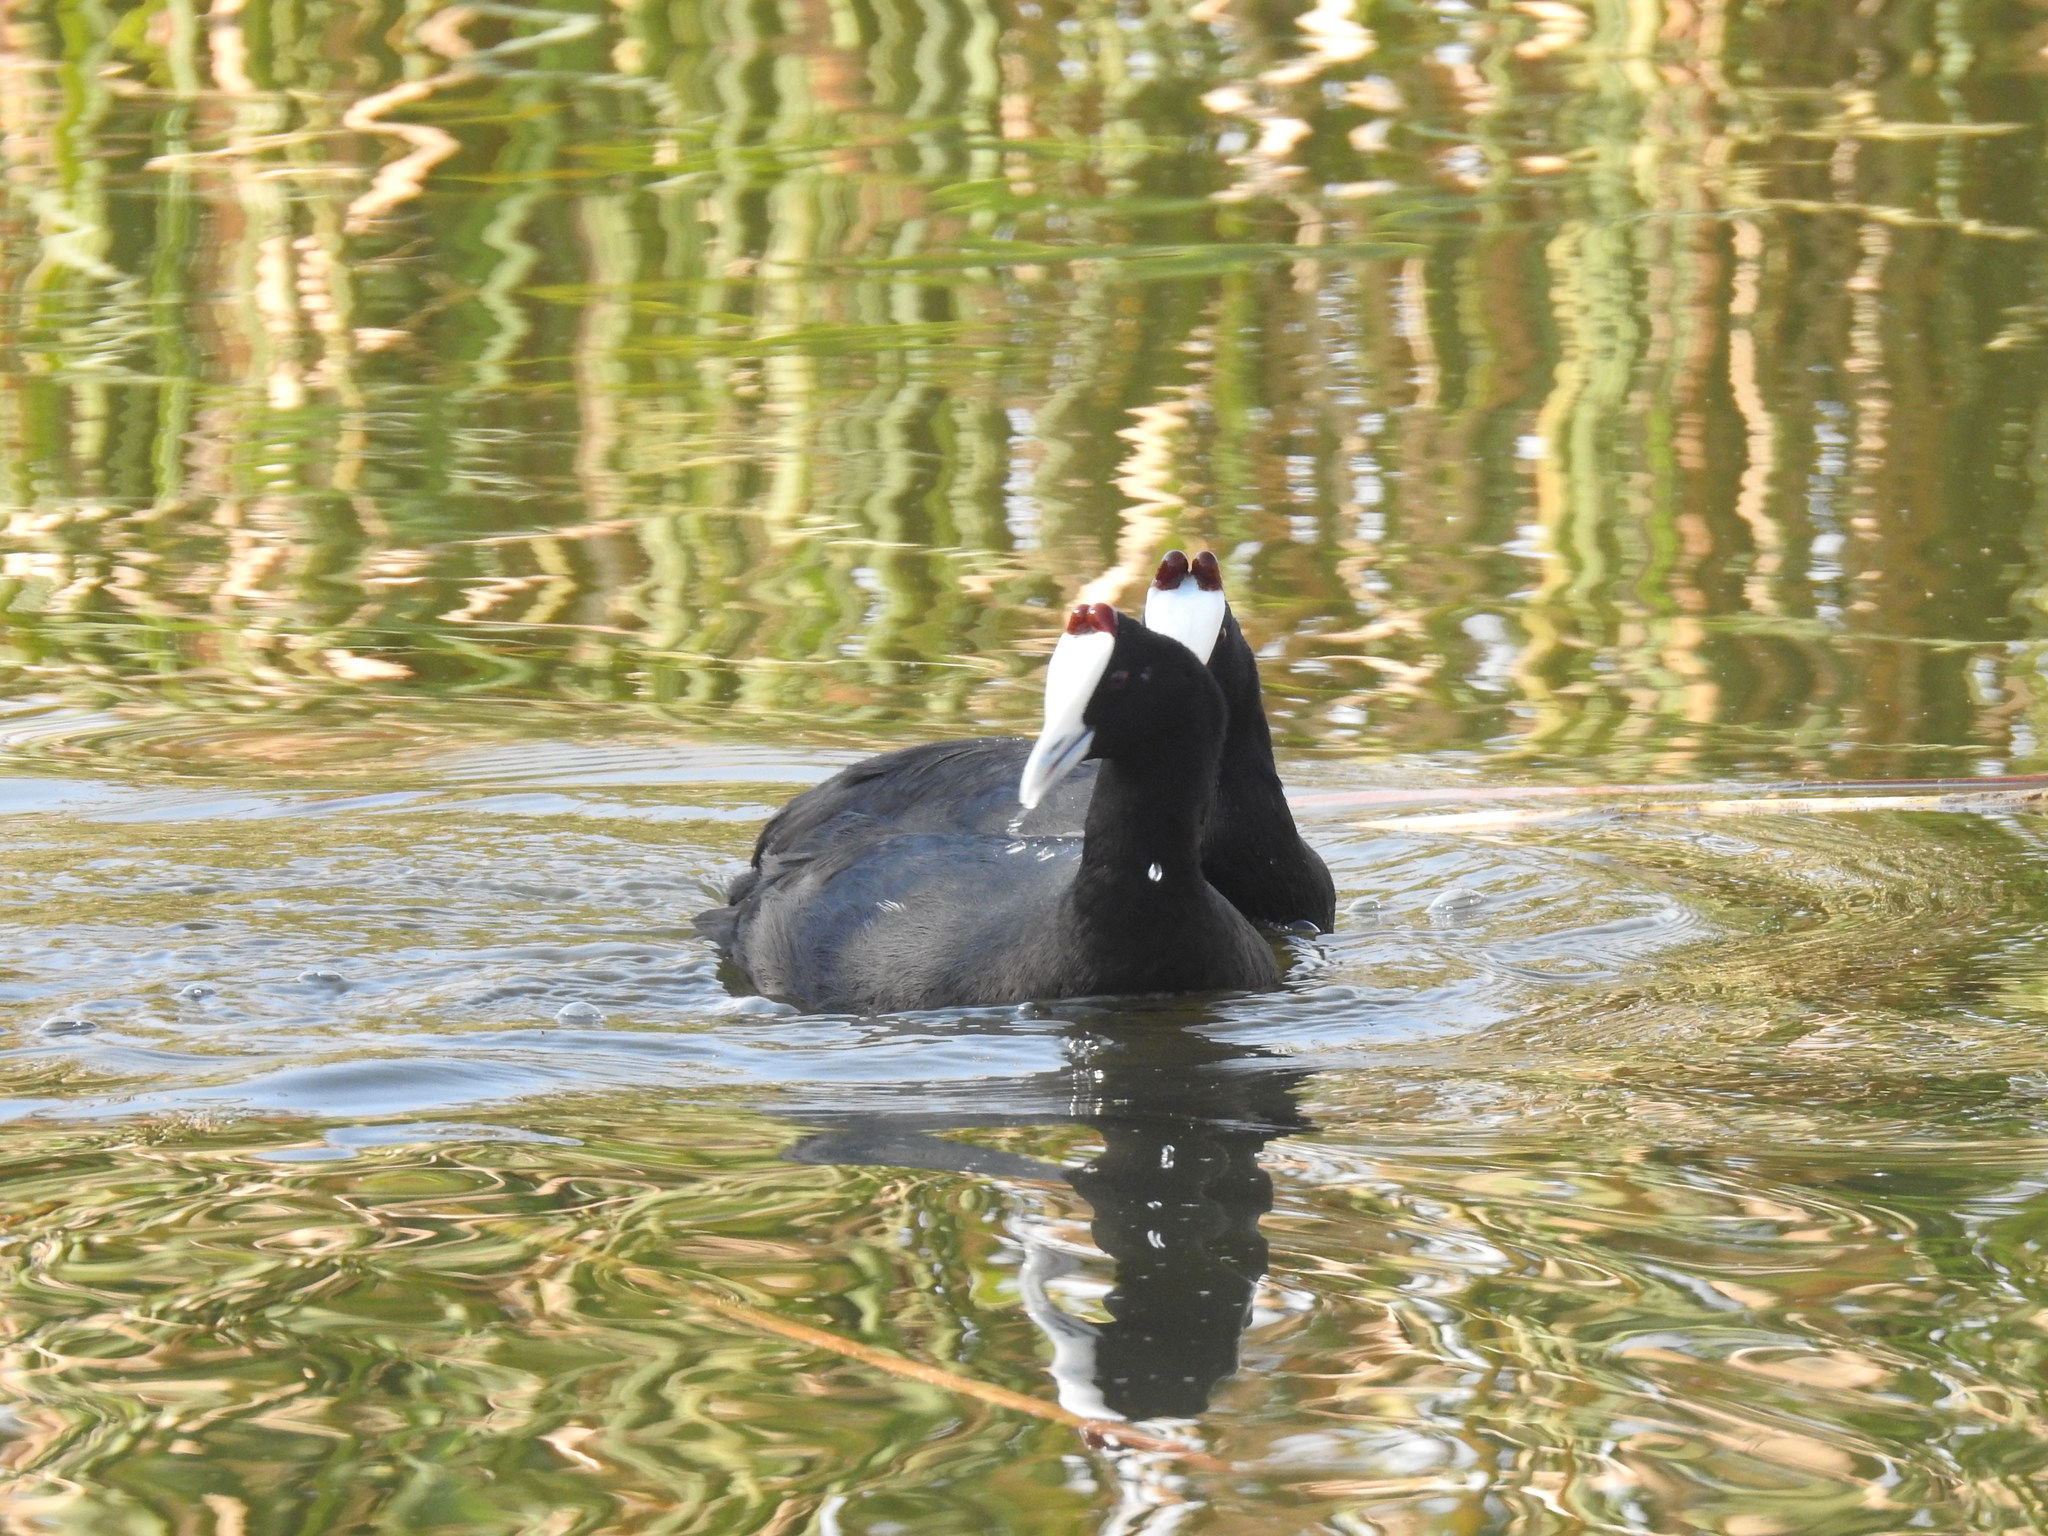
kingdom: Animalia
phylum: Chordata
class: Aves
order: Gruiformes
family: Rallidae
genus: Fulica
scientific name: Fulica cristata
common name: Red-knobbed coot
